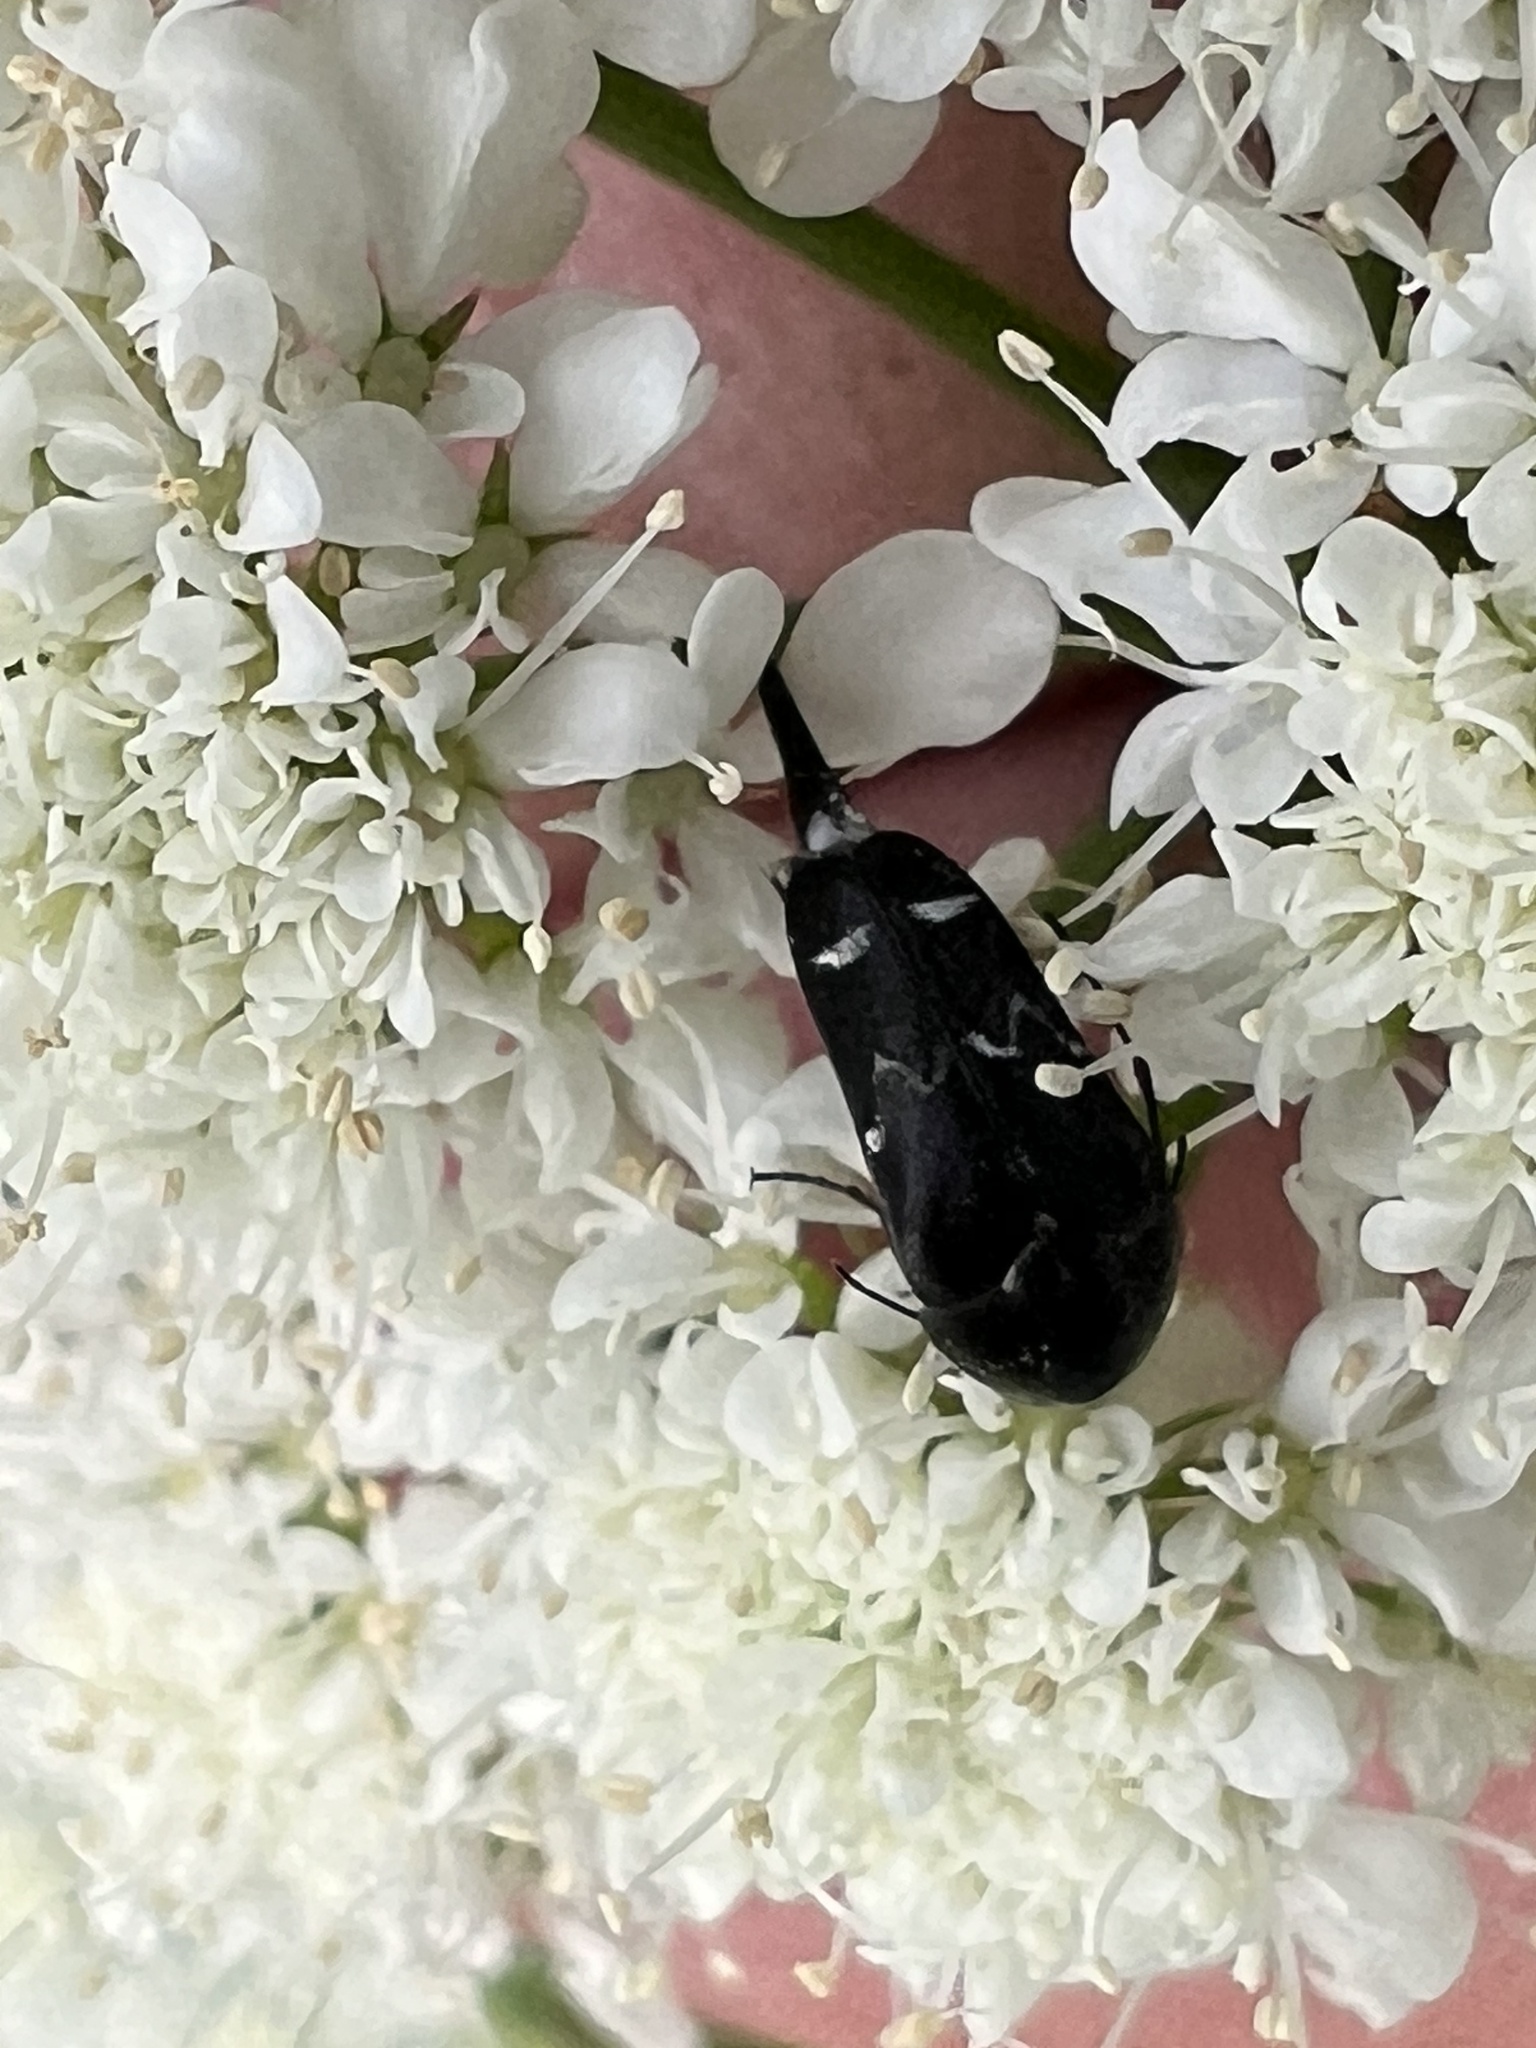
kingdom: Animalia
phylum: Arthropoda
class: Insecta
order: Coleoptera
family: Mordellidae
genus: Mordella
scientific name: Mordella
